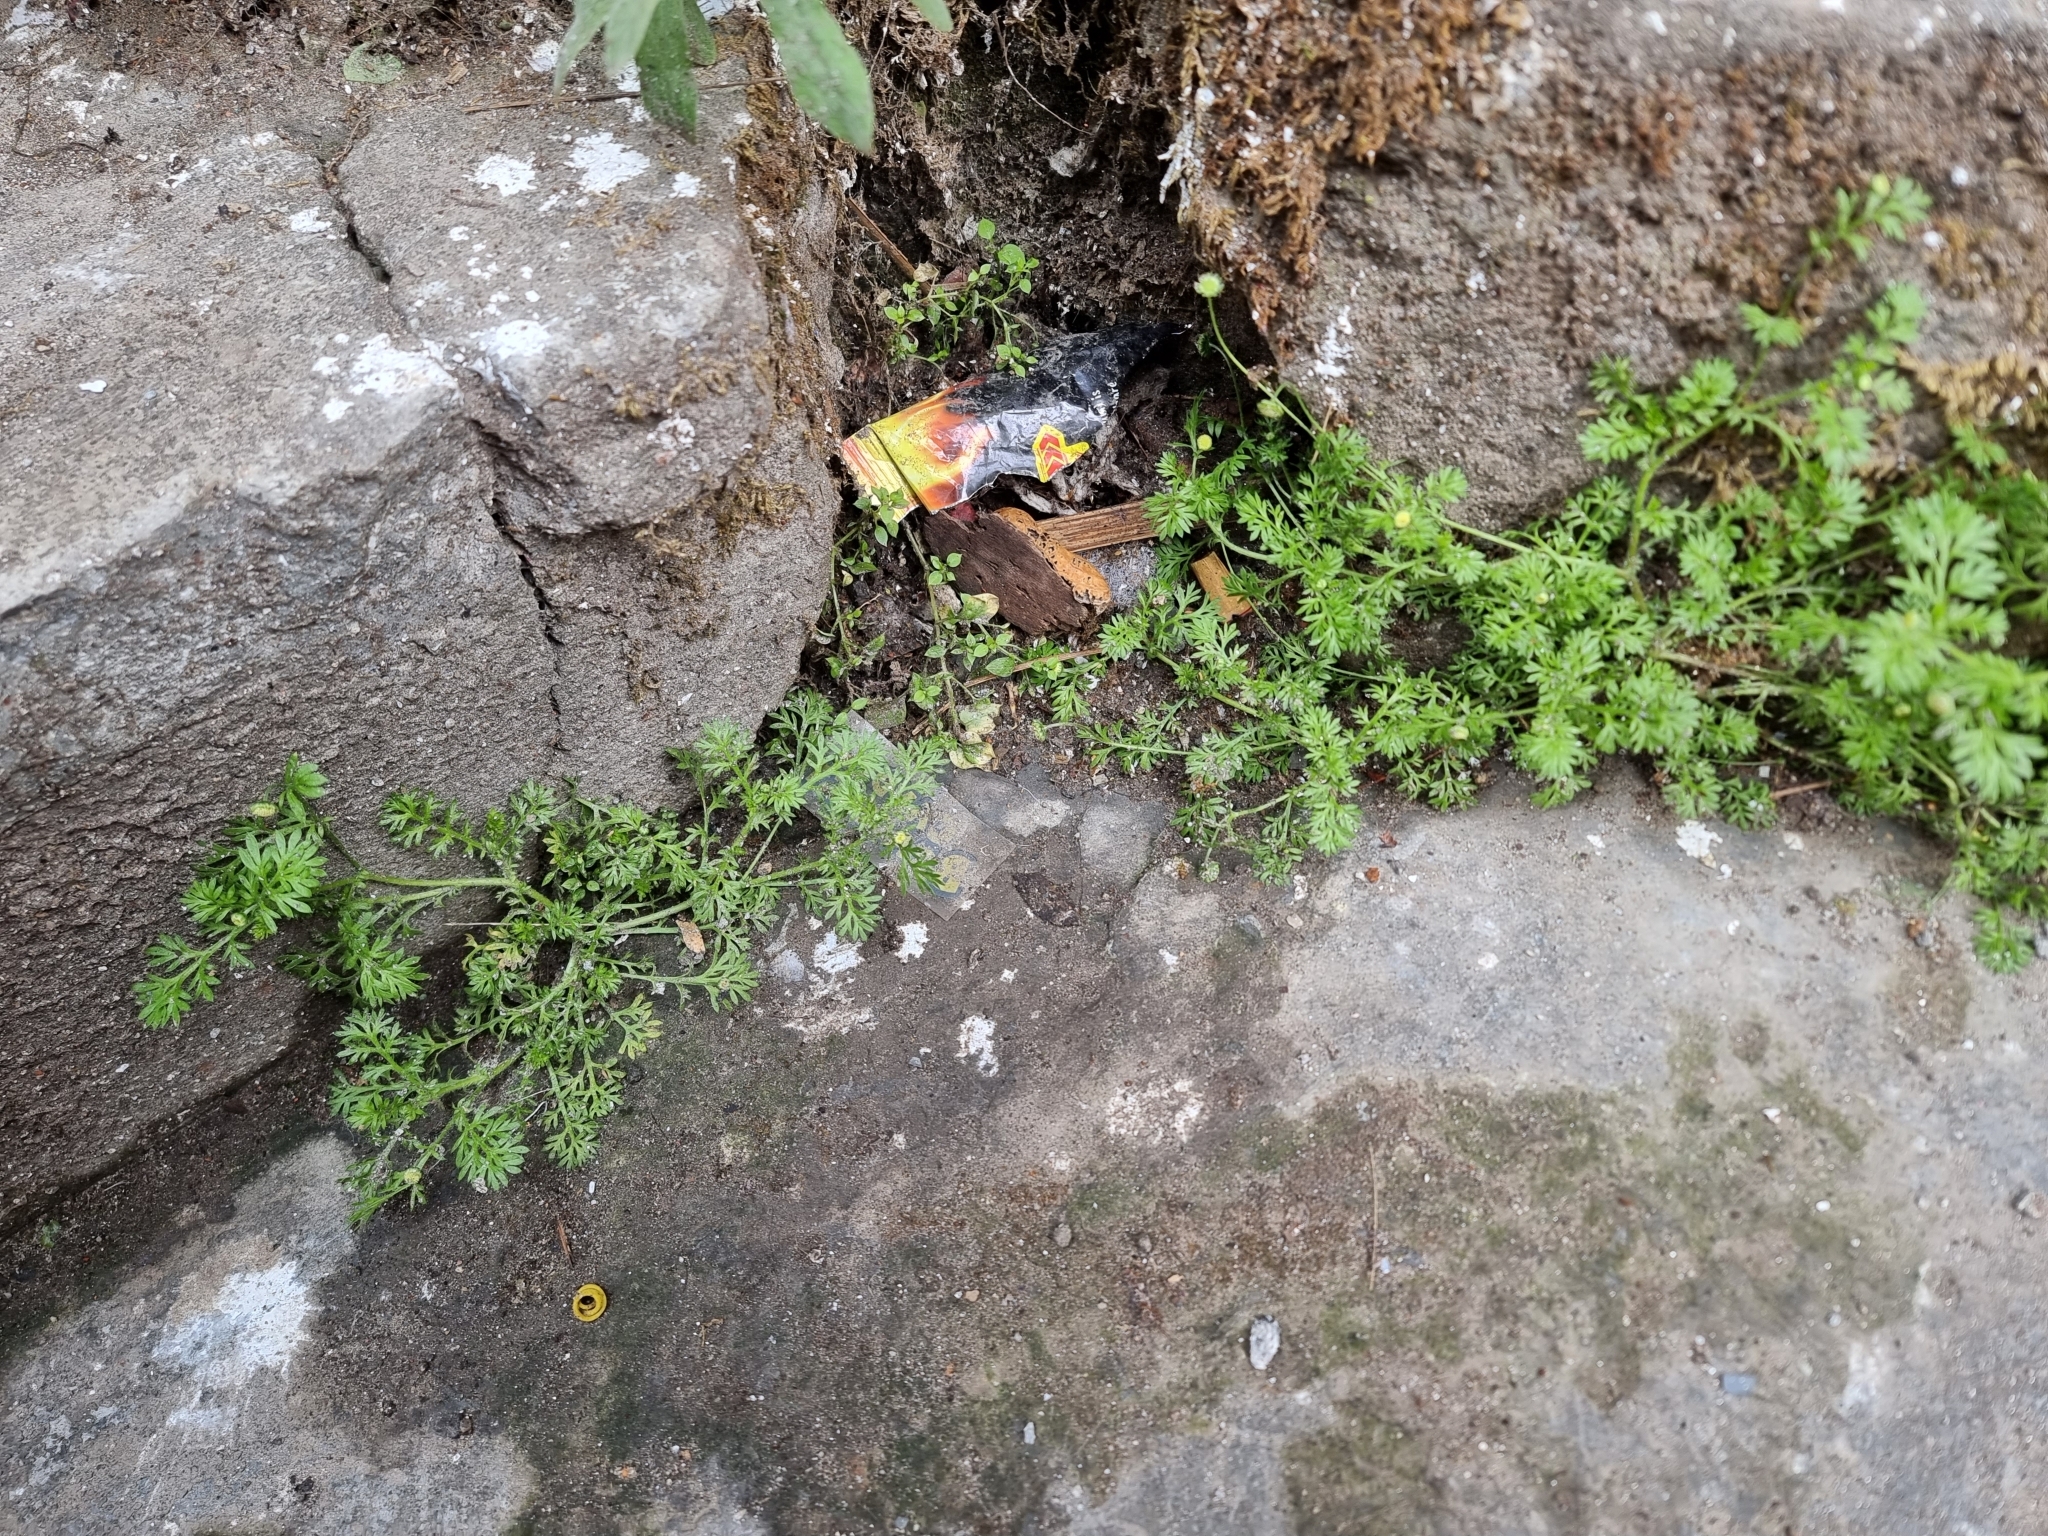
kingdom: Plantae
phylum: Tracheophyta
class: Magnoliopsida
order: Asterales
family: Asteraceae
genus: Cotula
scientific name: Cotula australis
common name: Australian waterbuttons
